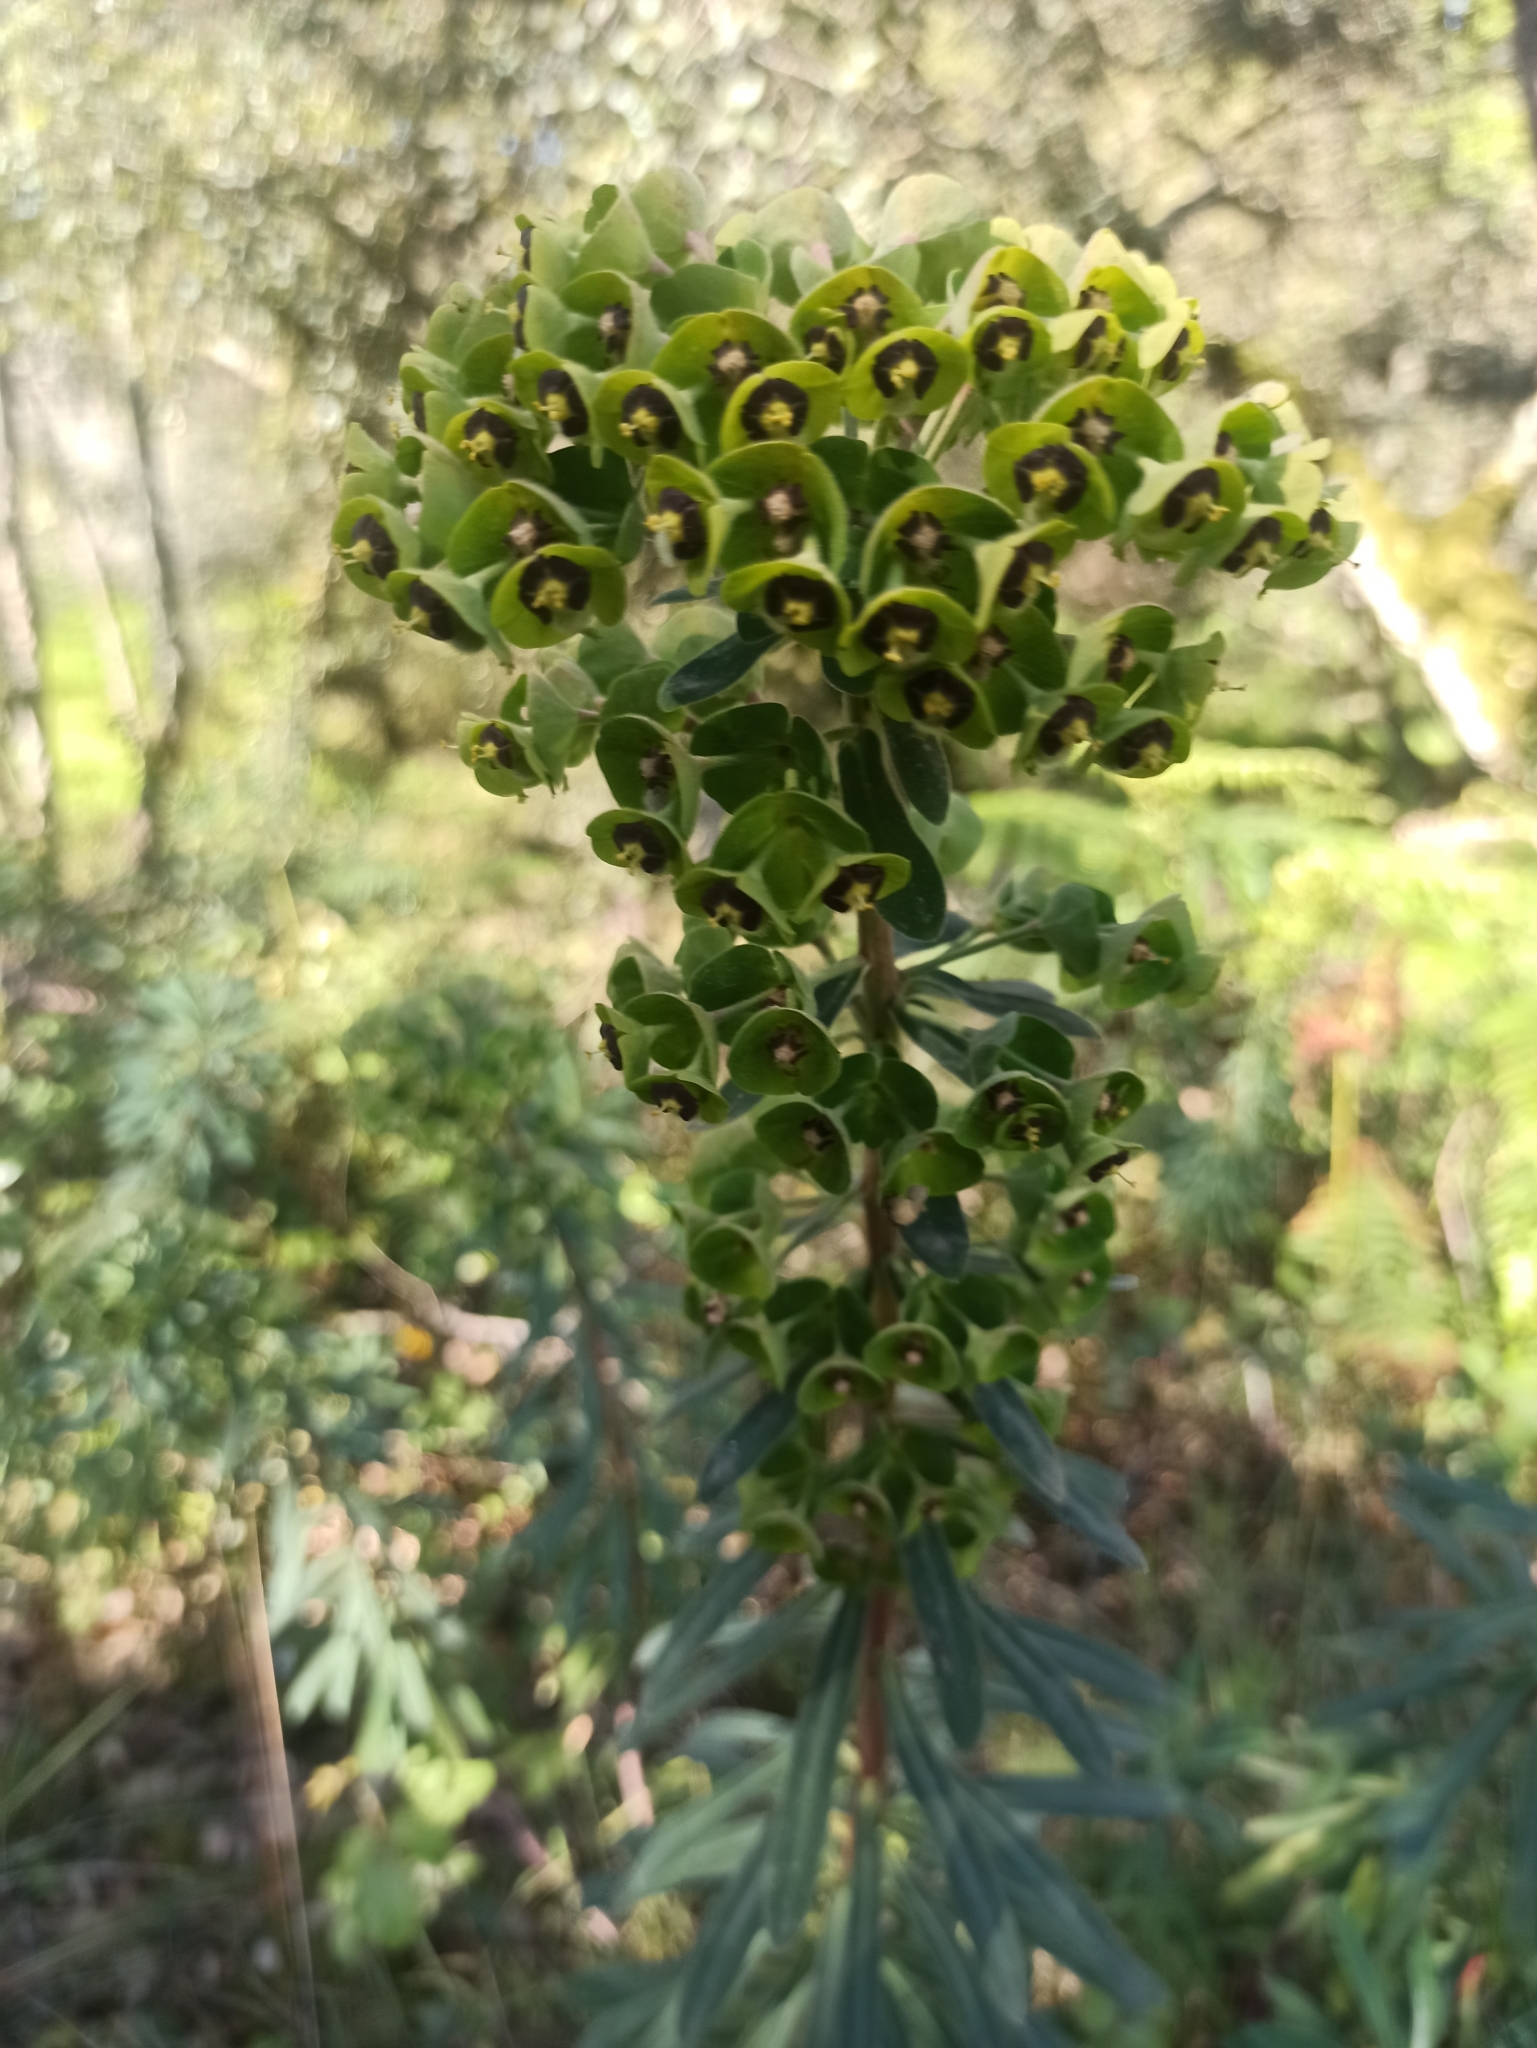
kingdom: Plantae
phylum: Tracheophyta
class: Magnoliopsida
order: Malpighiales
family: Euphorbiaceae
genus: Euphorbia
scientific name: Euphorbia characias
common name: Mediterranean spurge
